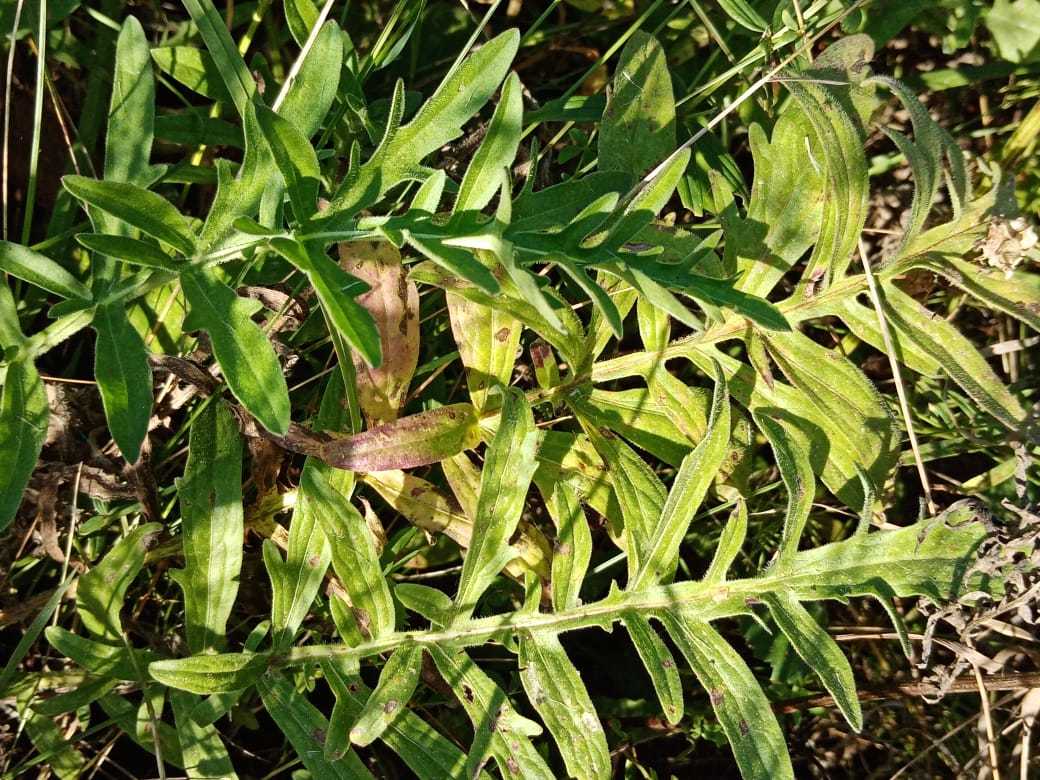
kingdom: Plantae
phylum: Tracheophyta
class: Magnoliopsida
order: Asterales
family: Asteraceae
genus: Centaurea
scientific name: Centaurea scabiosa
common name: Greater knapweed
